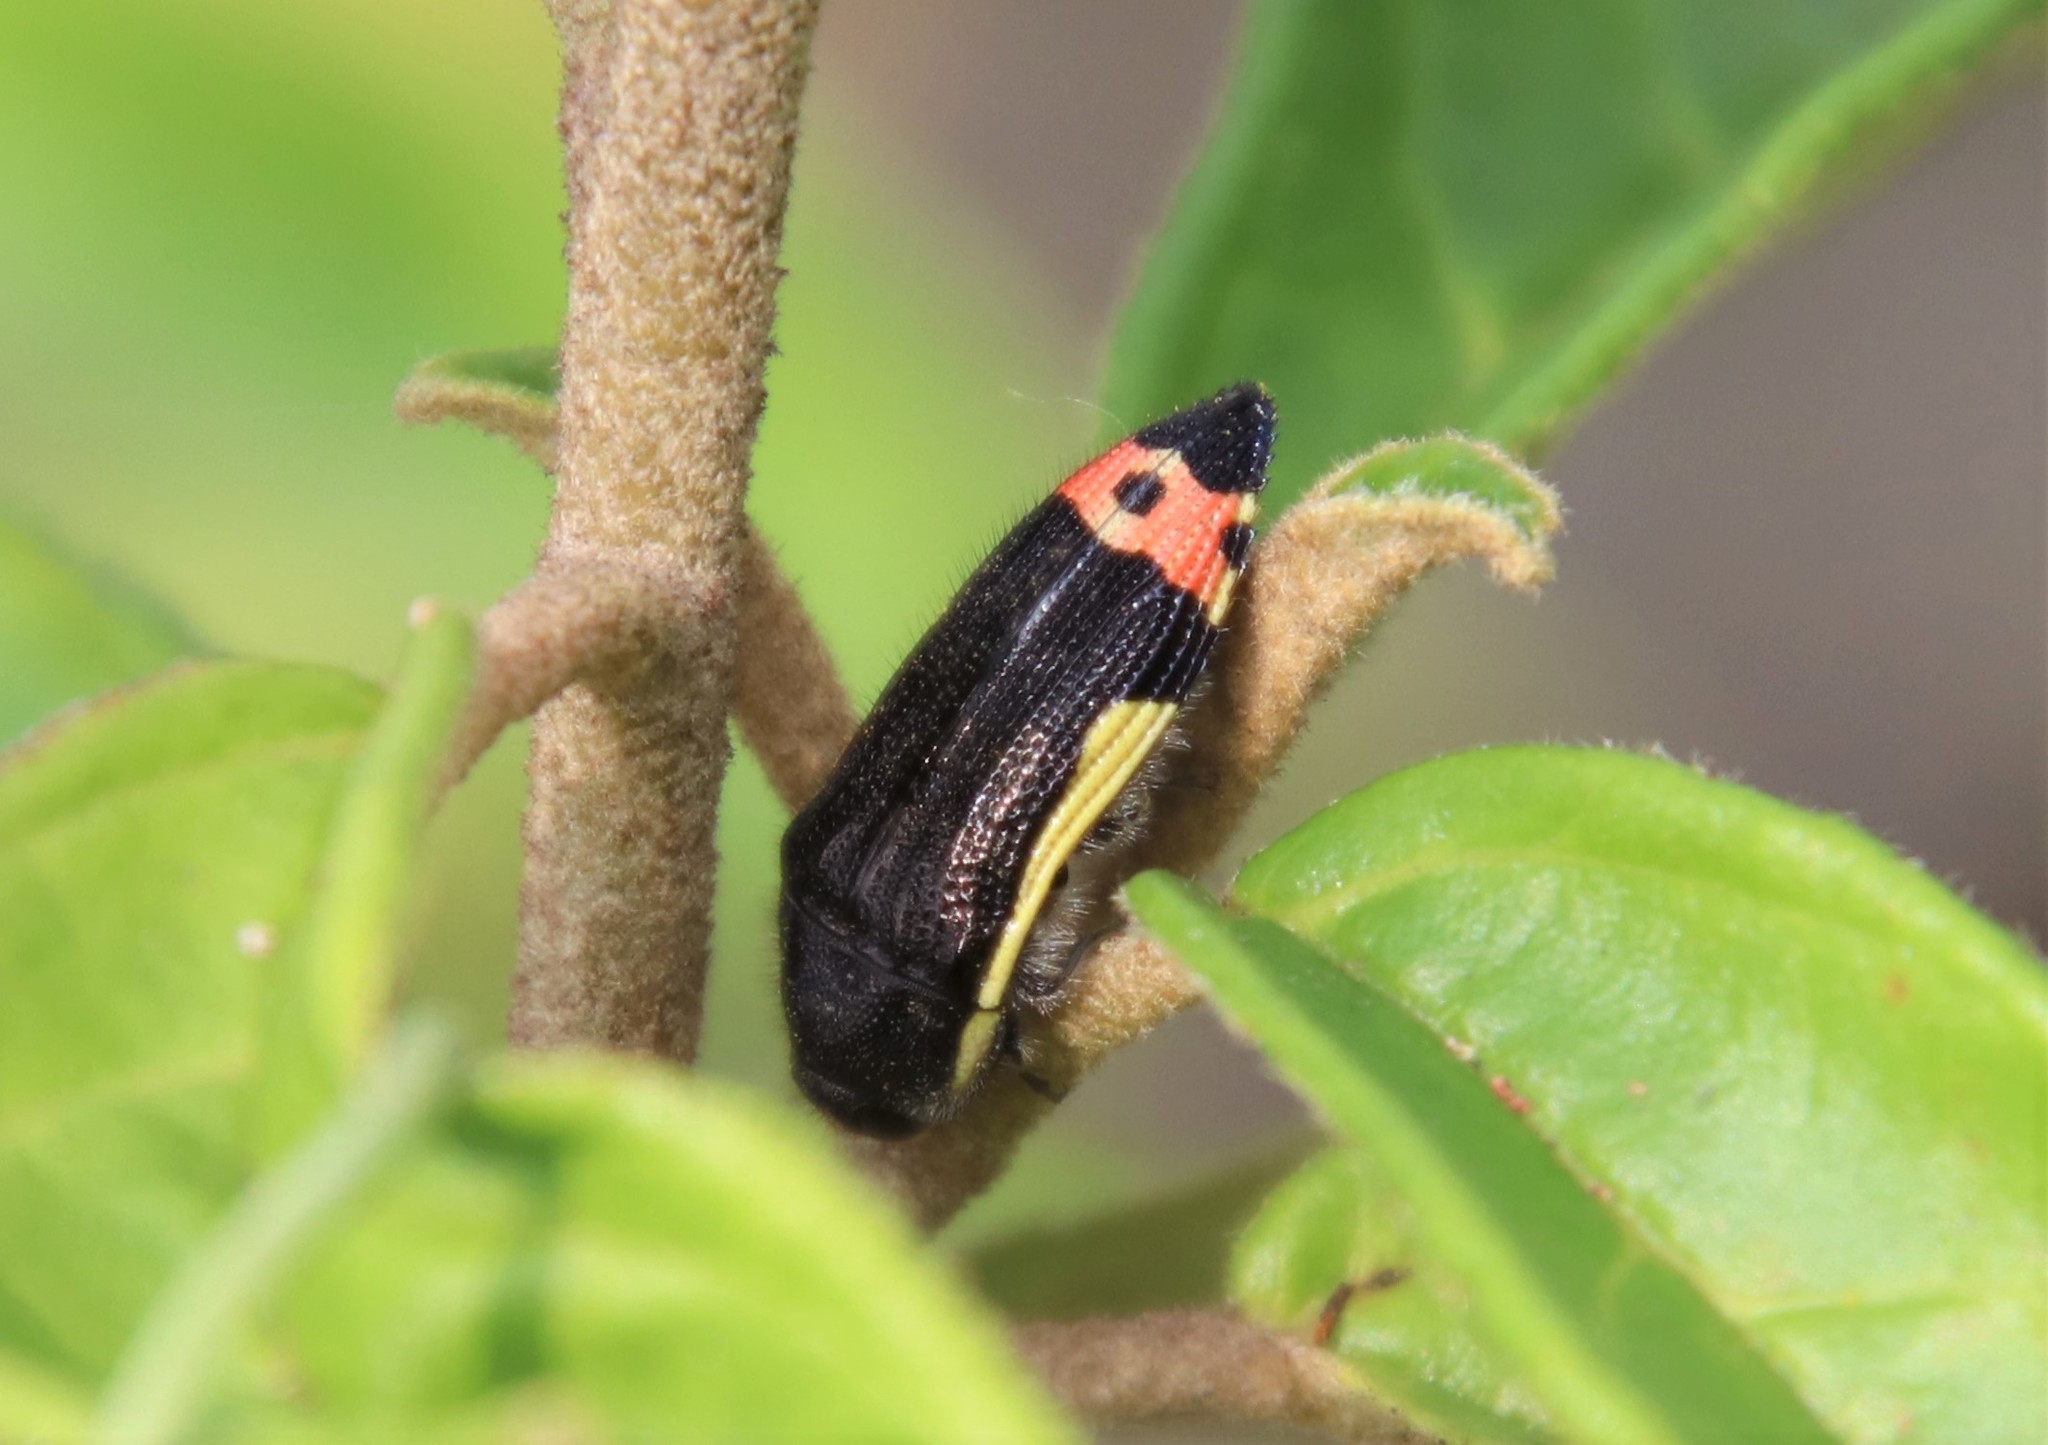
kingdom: Animalia
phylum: Arthropoda
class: Insecta
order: Coleoptera
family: Buprestidae
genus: Acmaeodera
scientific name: Acmaeodera flavomarginata
